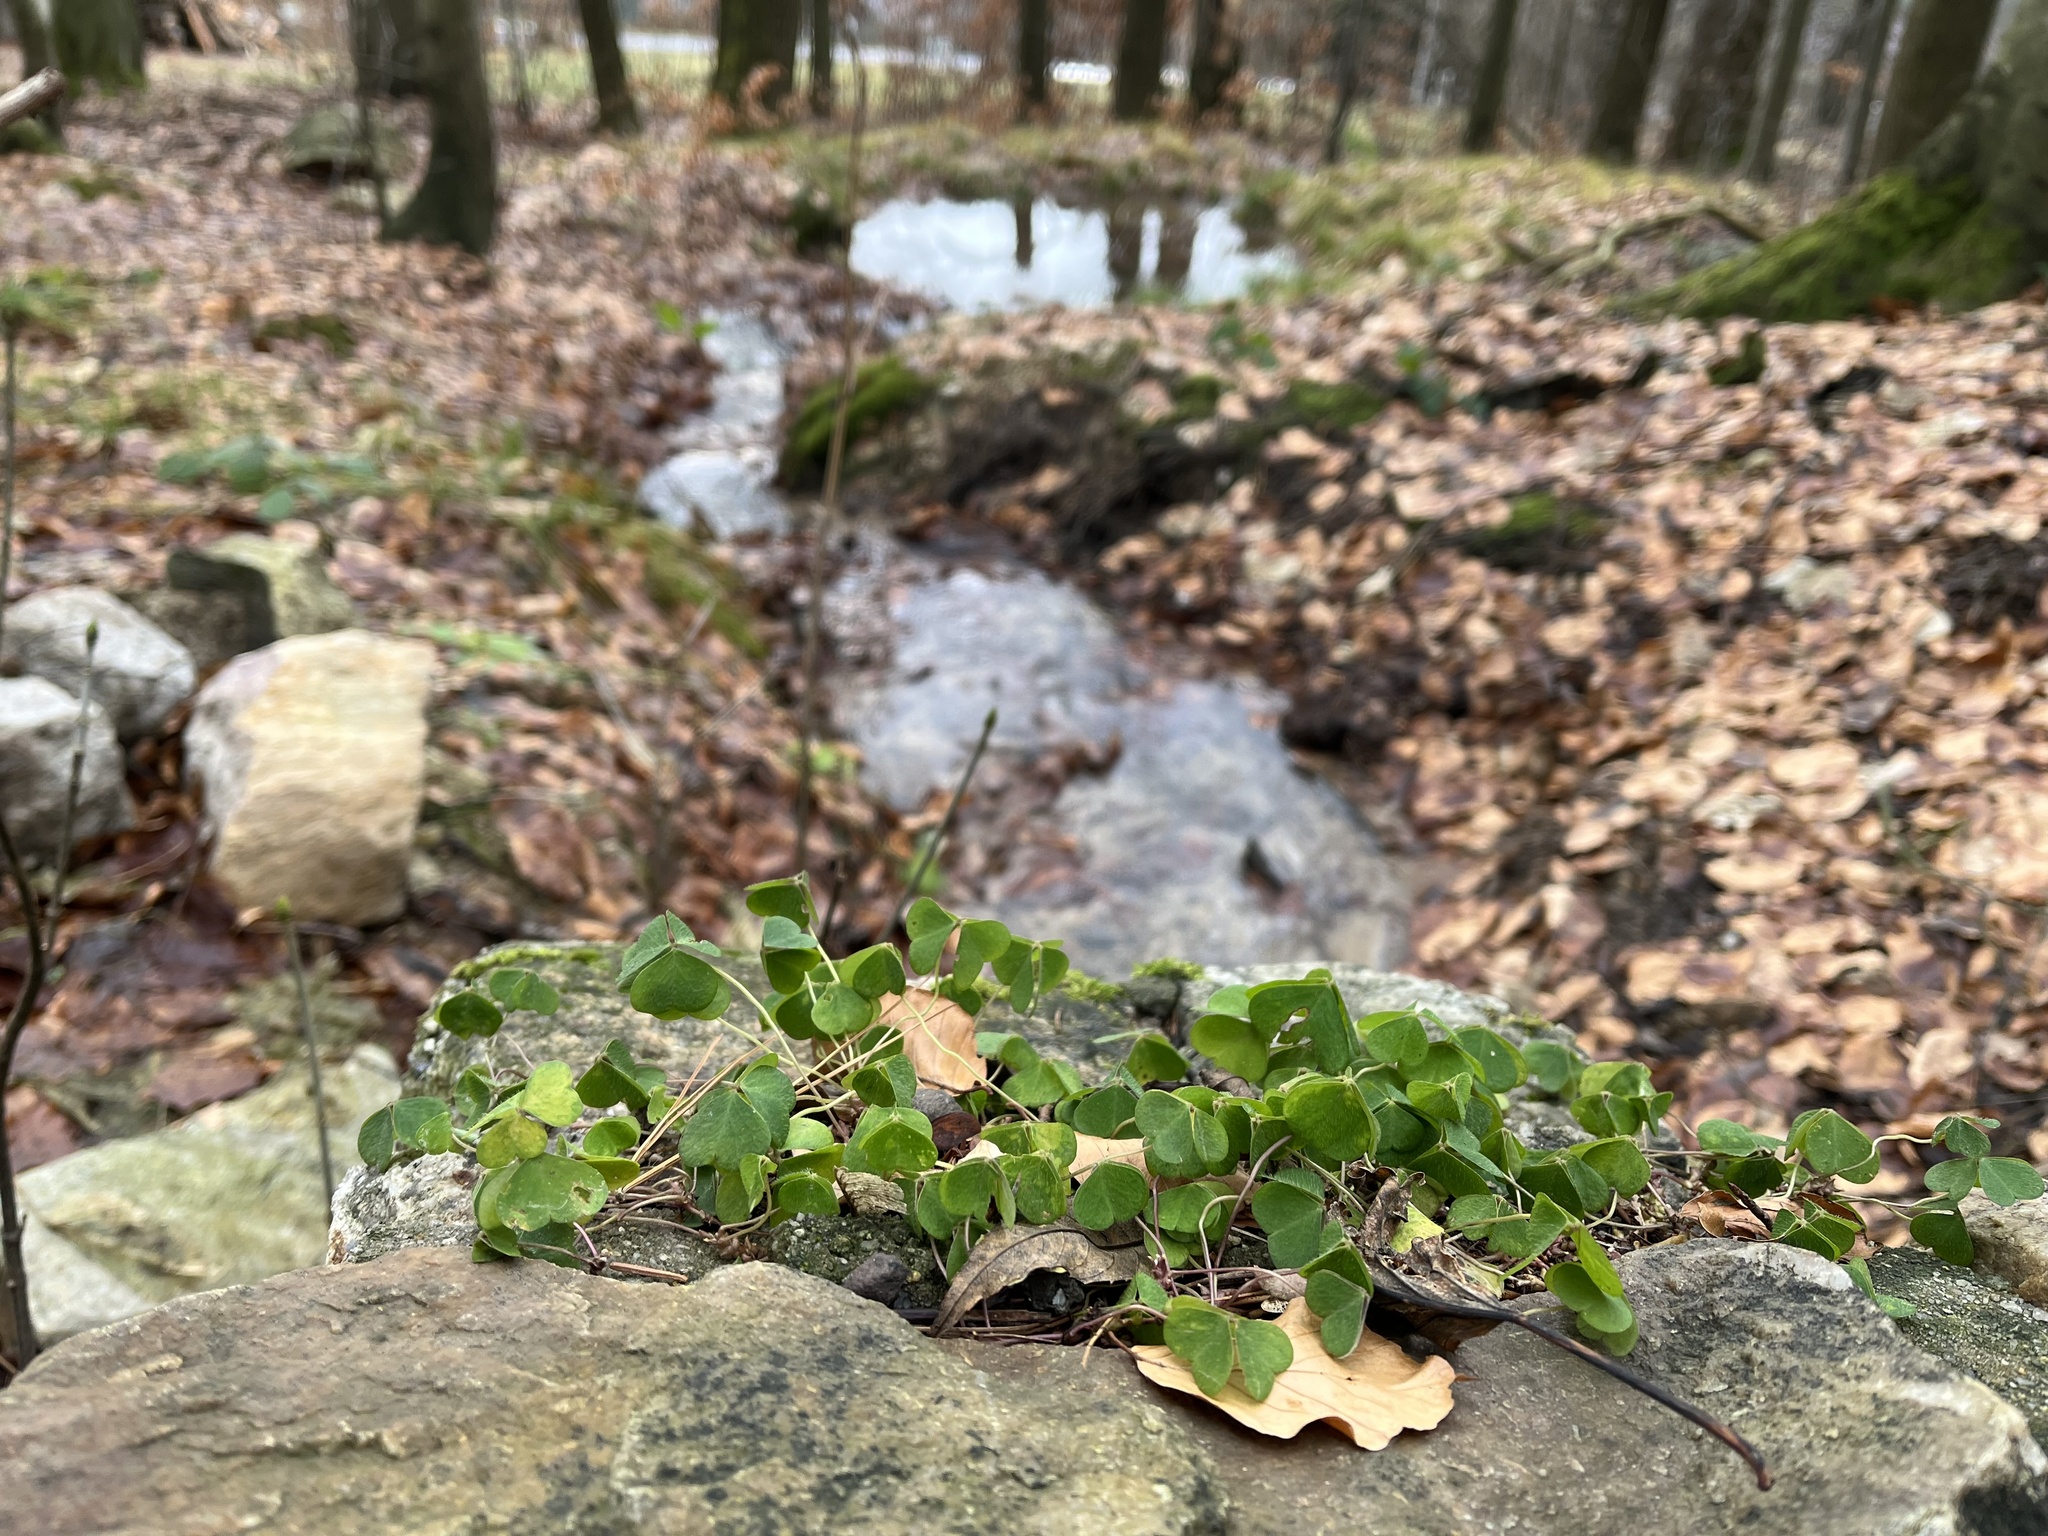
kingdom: Plantae
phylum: Tracheophyta
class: Magnoliopsida
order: Oxalidales
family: Oxalidaceae
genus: Oxalis
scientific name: Oxalis acetosella
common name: Wood-sorrel
